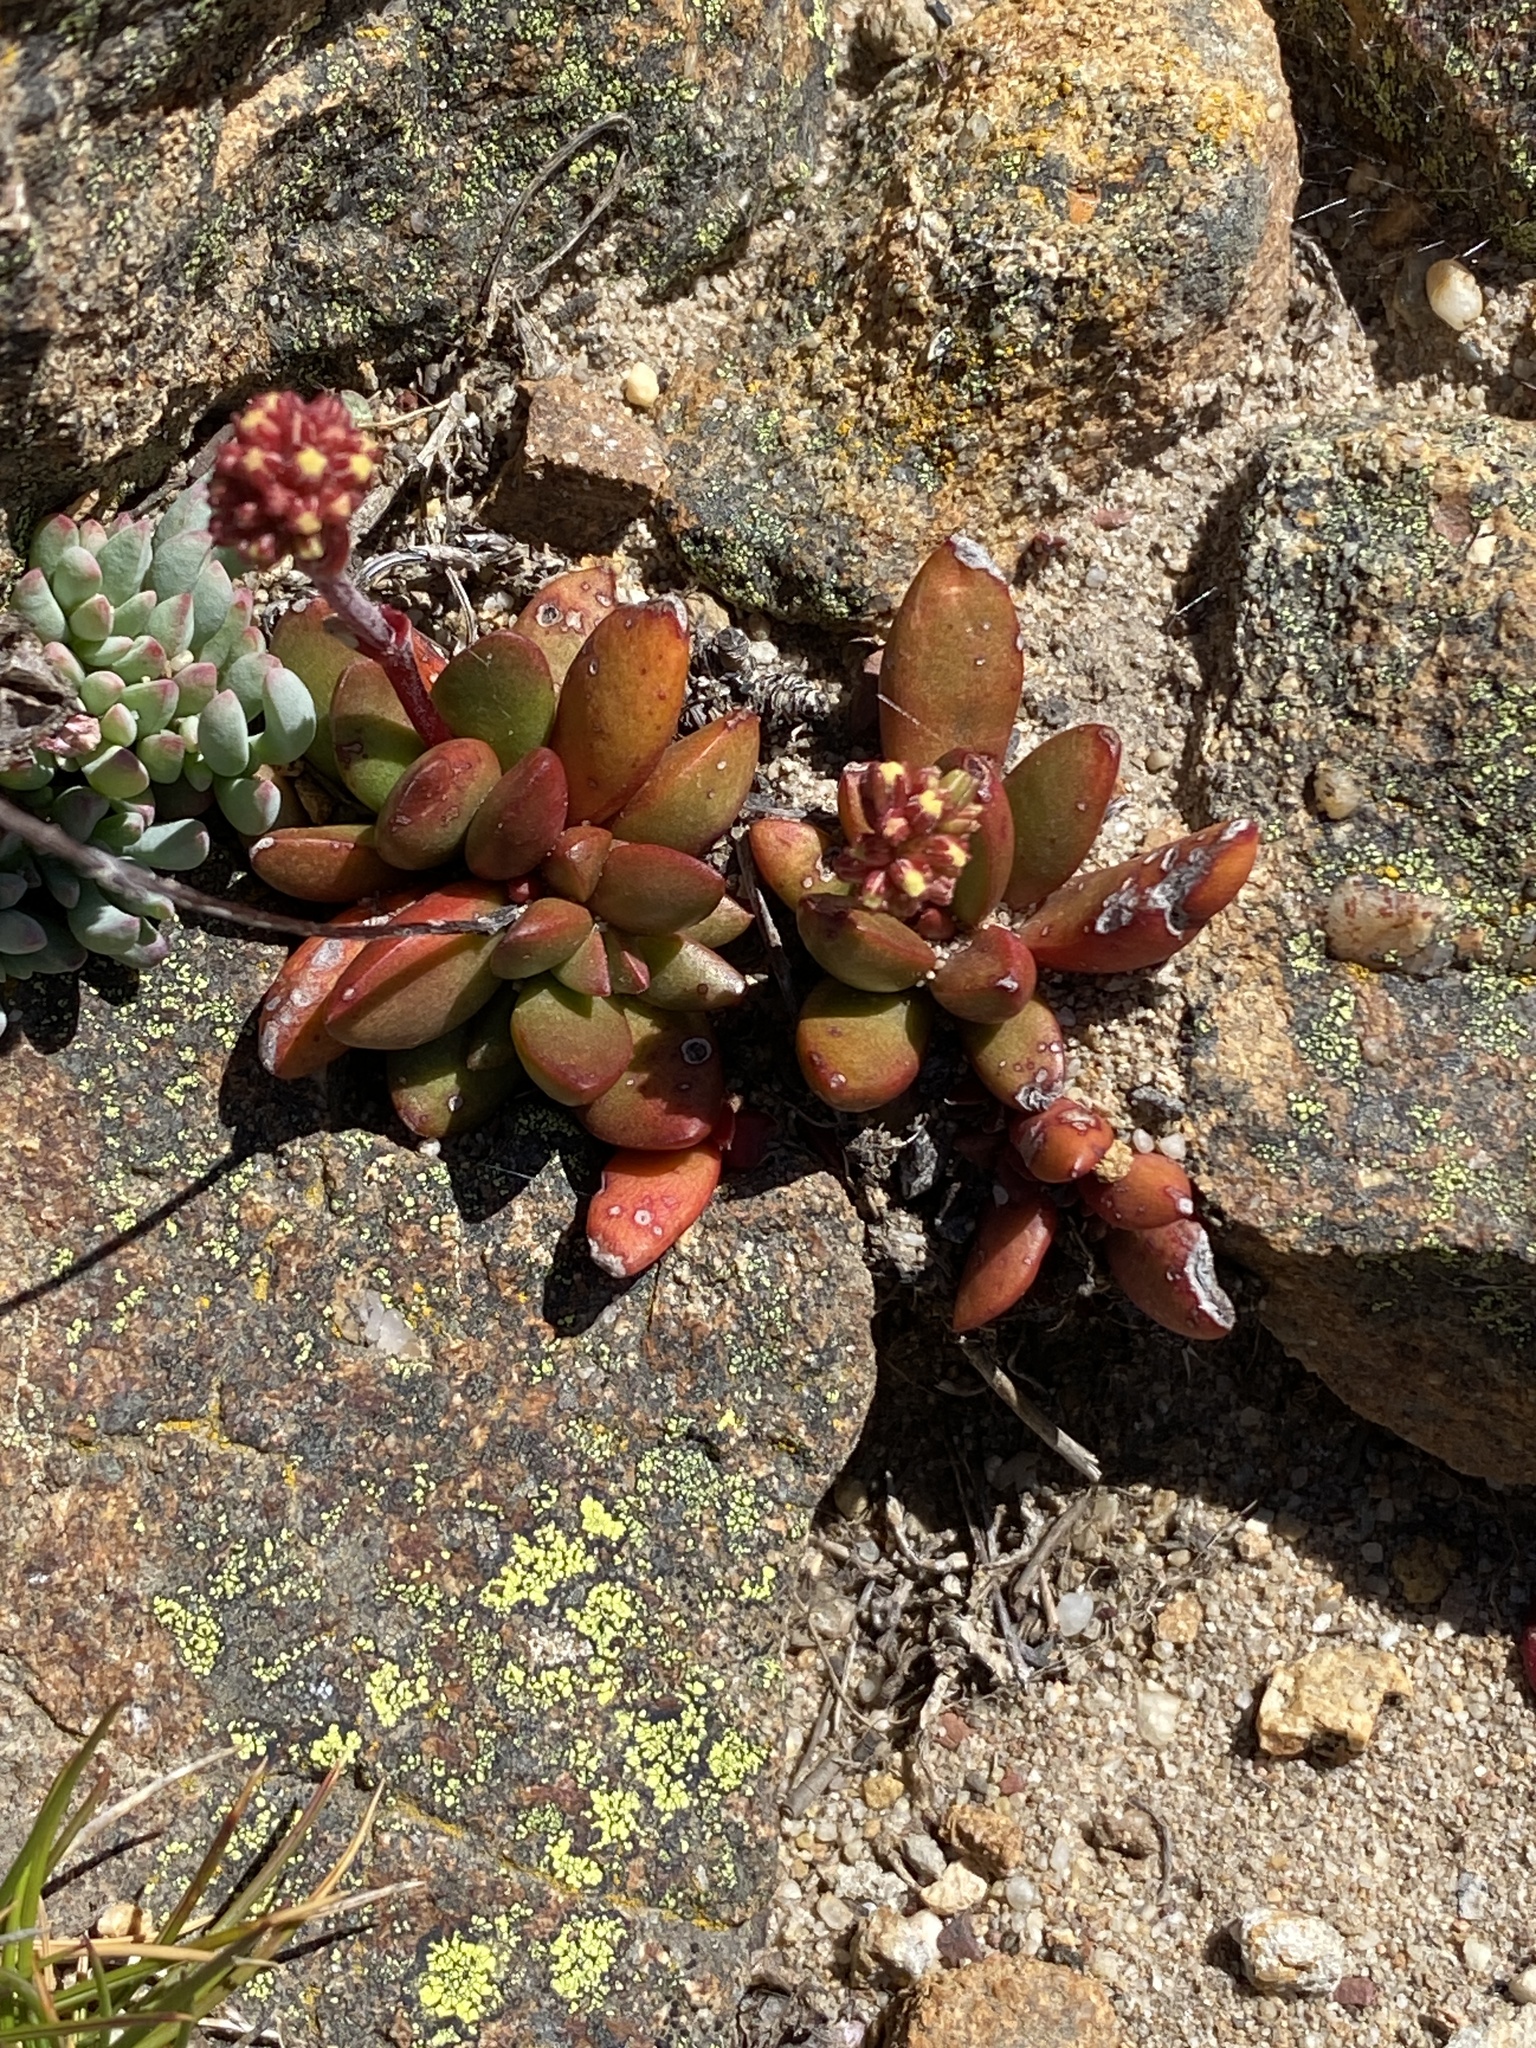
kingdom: Plantae
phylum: Tracheophyta
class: Magnoliopsida
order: Saxifragales
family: Crassulaceae
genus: Crassula
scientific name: Crassula nudicaulis
